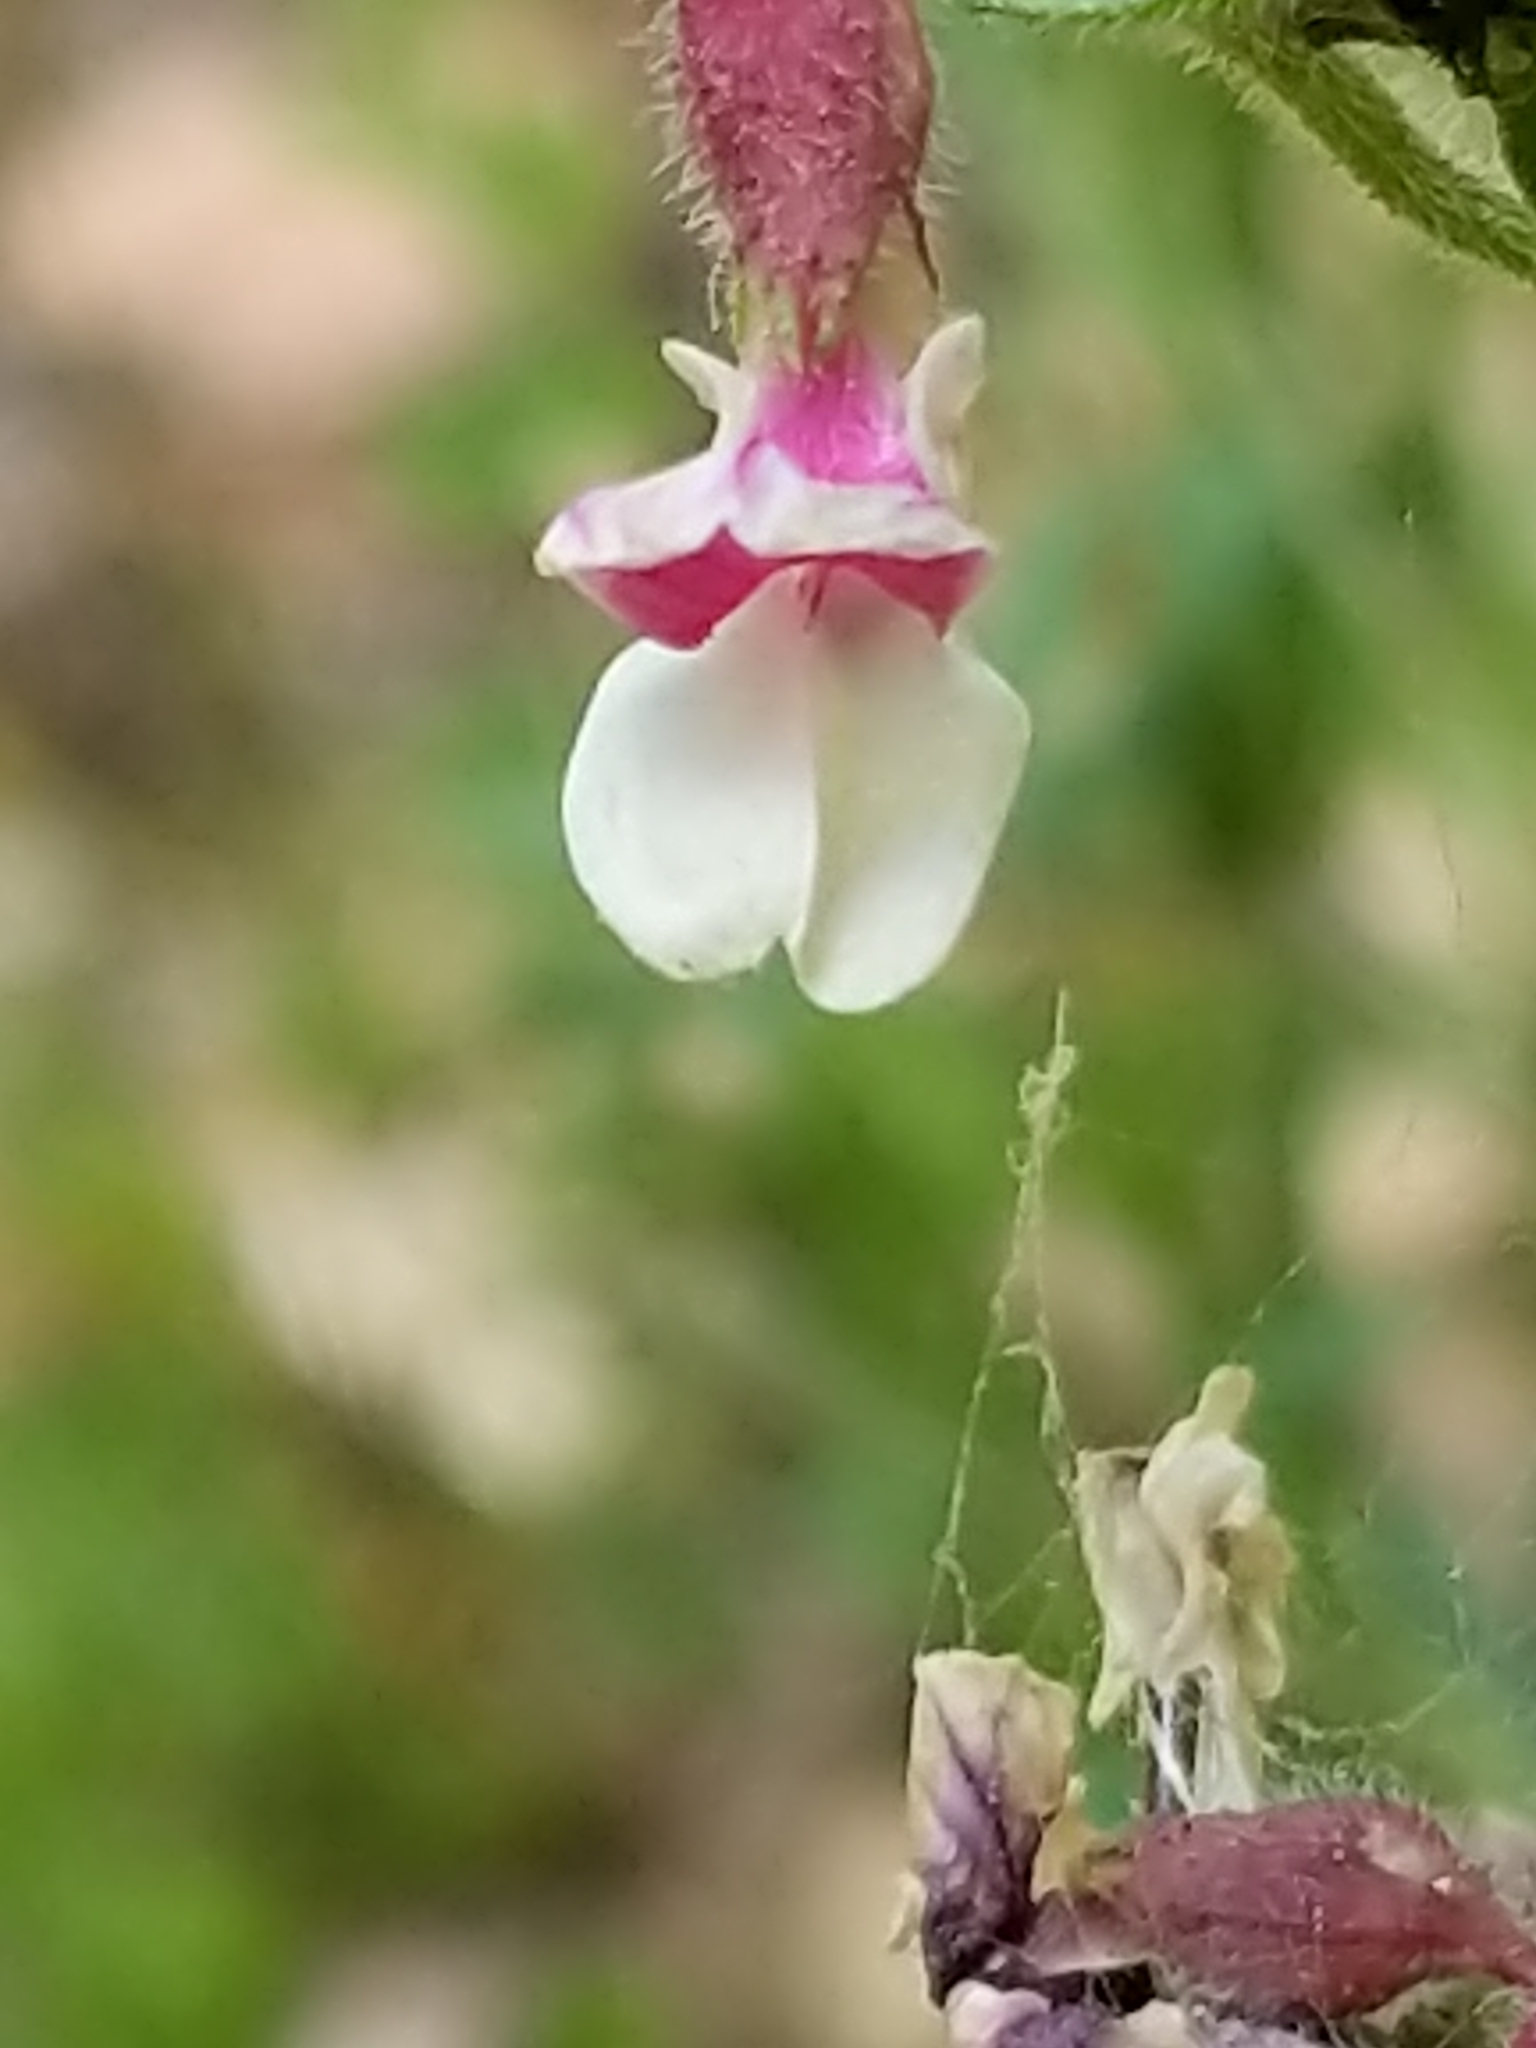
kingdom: Plantae
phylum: Tracheophyta
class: Magnoliopsida
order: Fabales
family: Fabaceae
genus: Hosackia
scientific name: Hosackia stipularis
